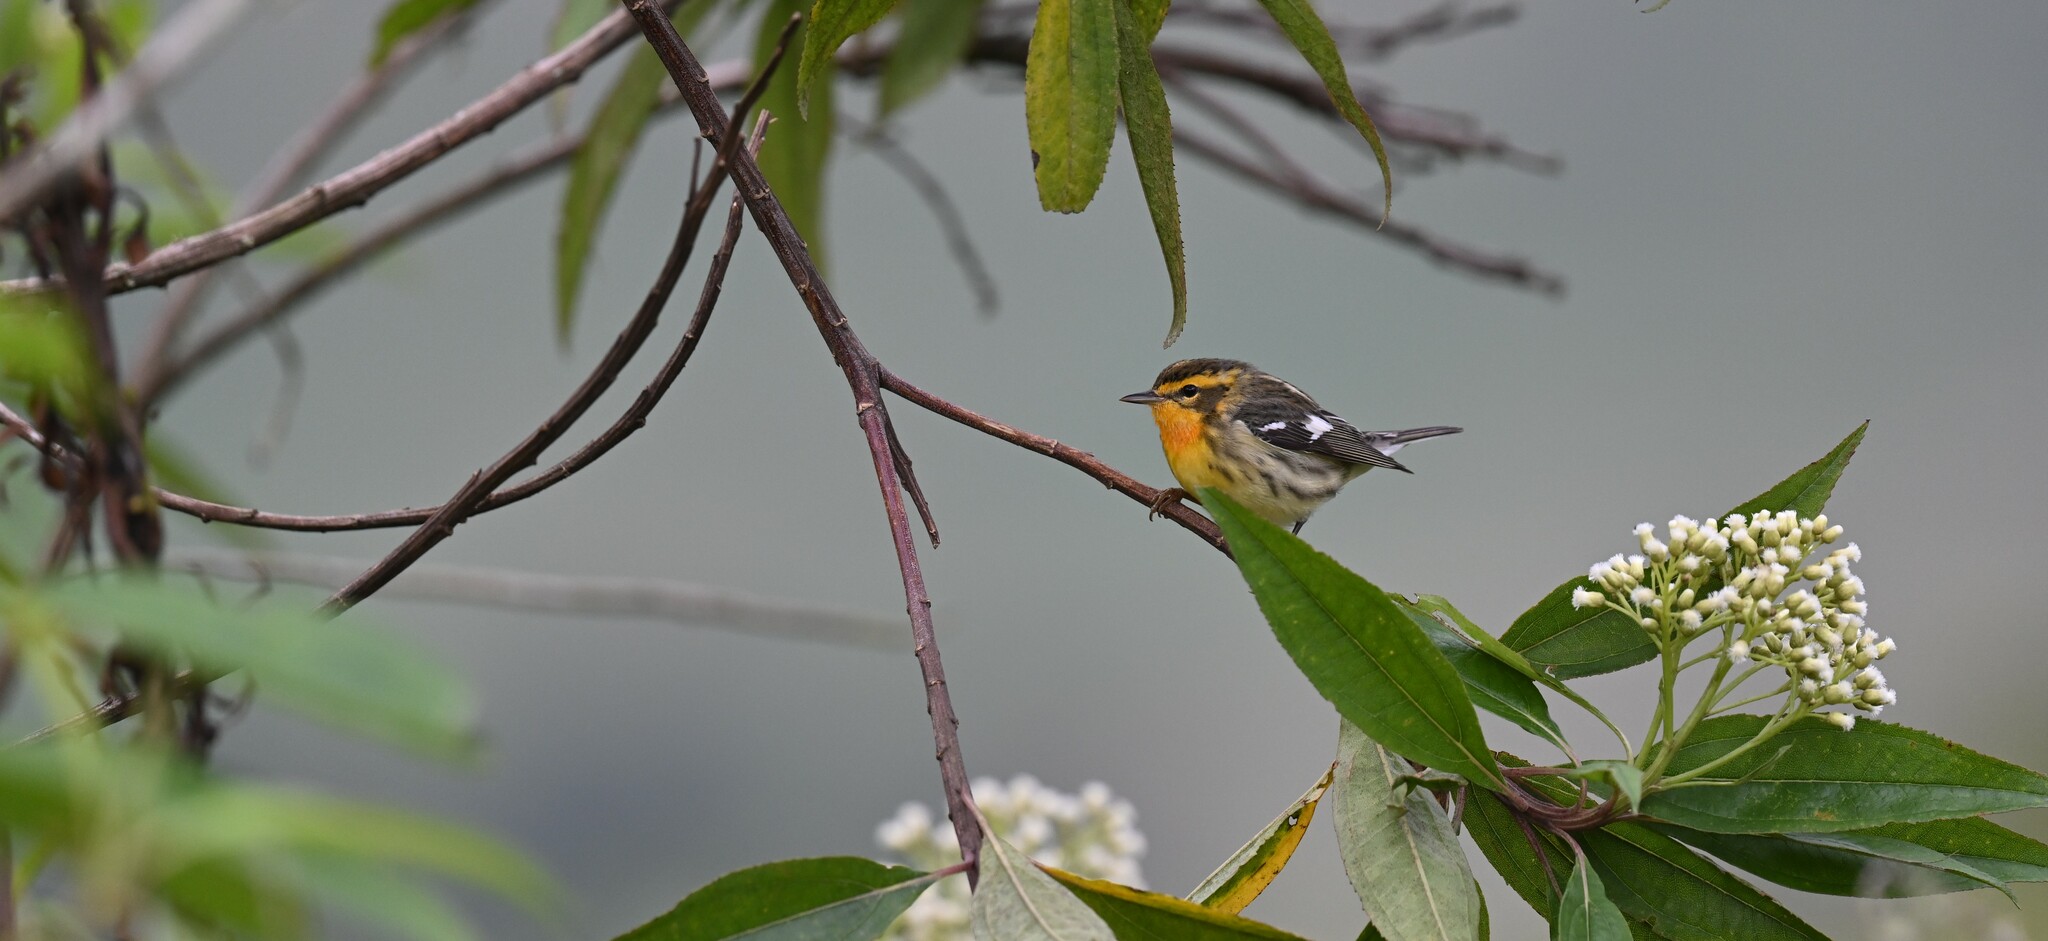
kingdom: Animalia
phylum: Chordata
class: Aves
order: Passeriformes
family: Parulidae
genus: Setophaga
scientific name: Setophaga fusca
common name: Blackburnian warbler
